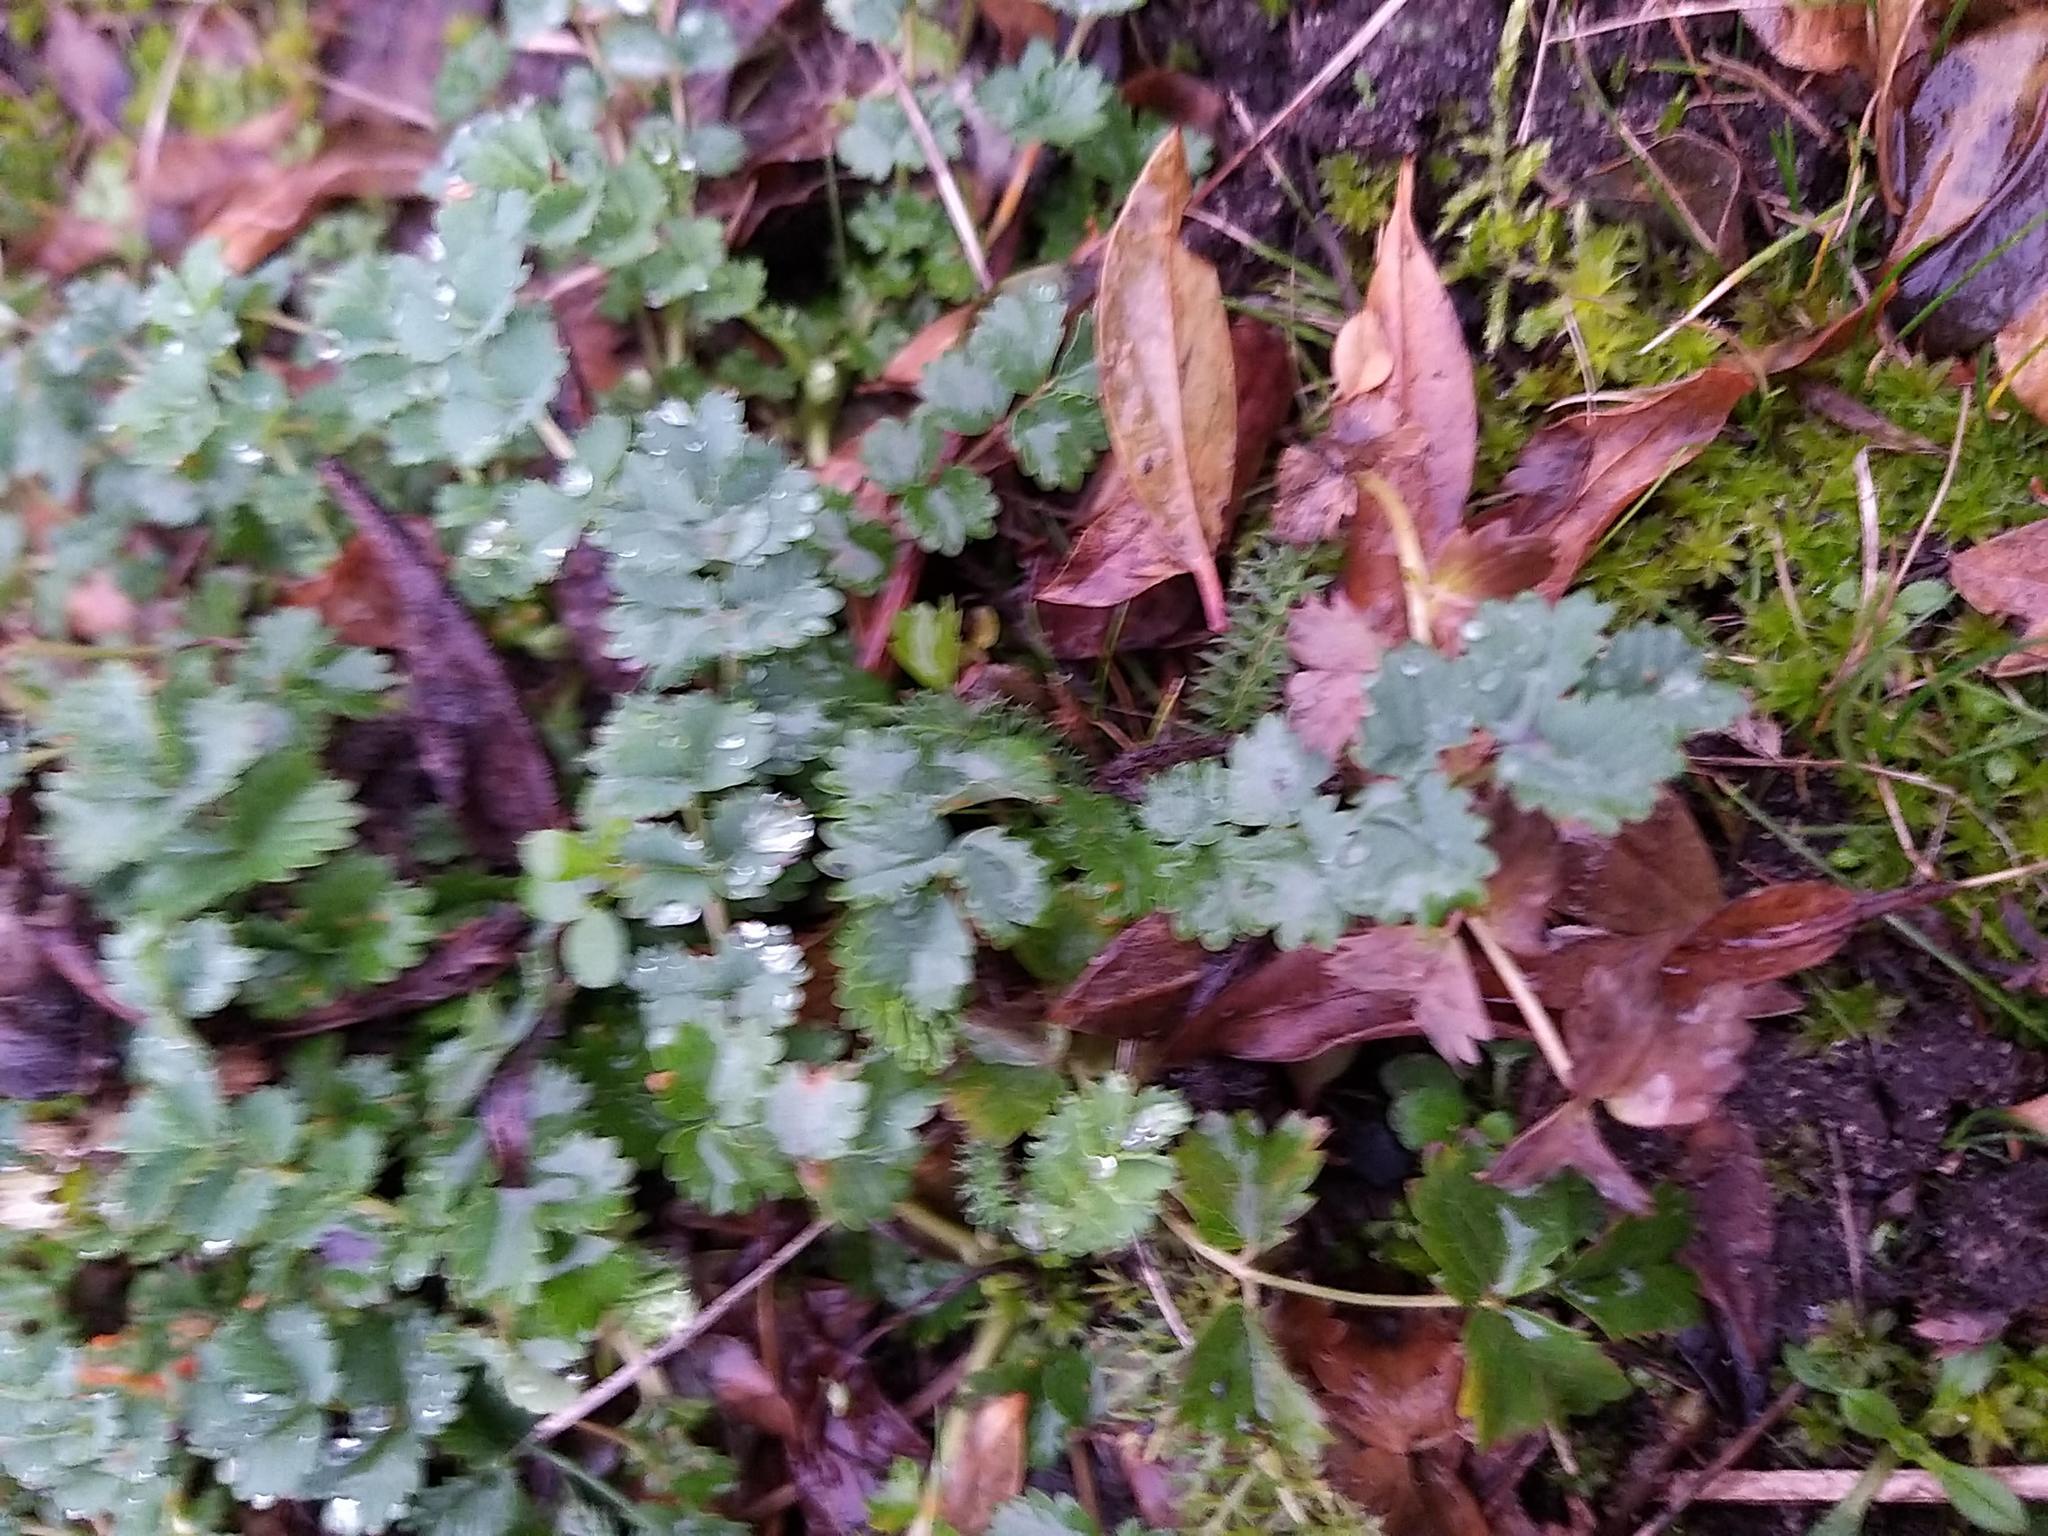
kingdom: Plantae
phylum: Tracheophyta
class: Magnoliopsida
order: Rosales
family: Rosaceae
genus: Poterium
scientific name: Poterium sanguisorba
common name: Salad burnet
